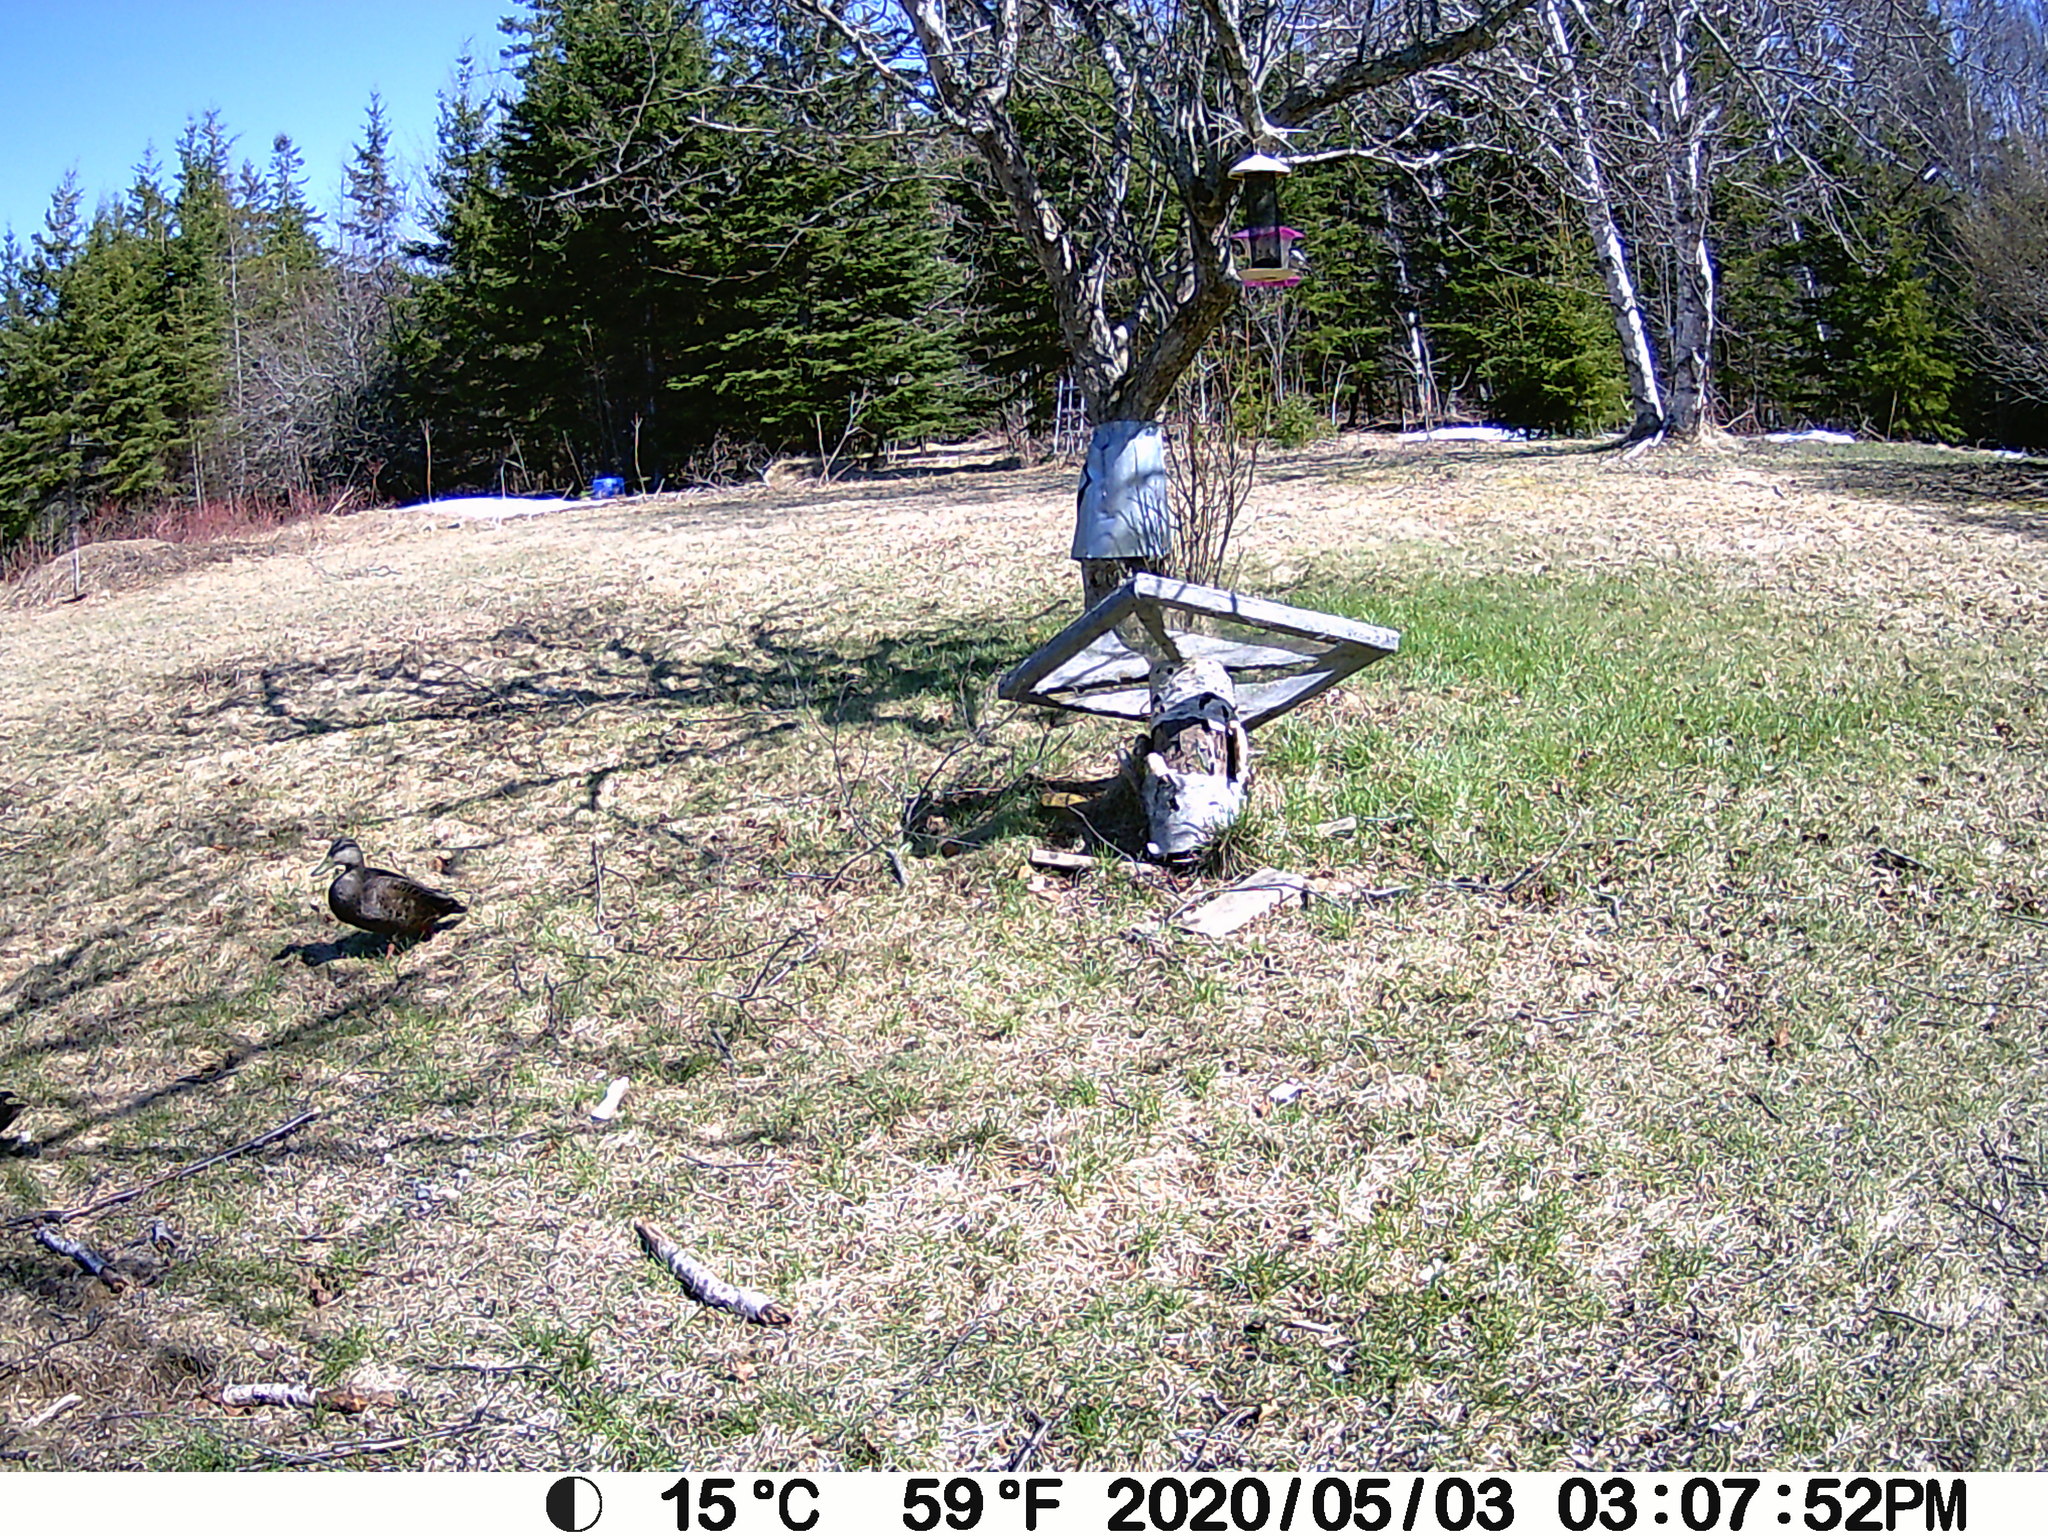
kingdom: Animalia
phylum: Chordata
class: Aves
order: Anseriformes
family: Anatidae
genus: Anas
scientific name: Anas rubripes
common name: American black duck
